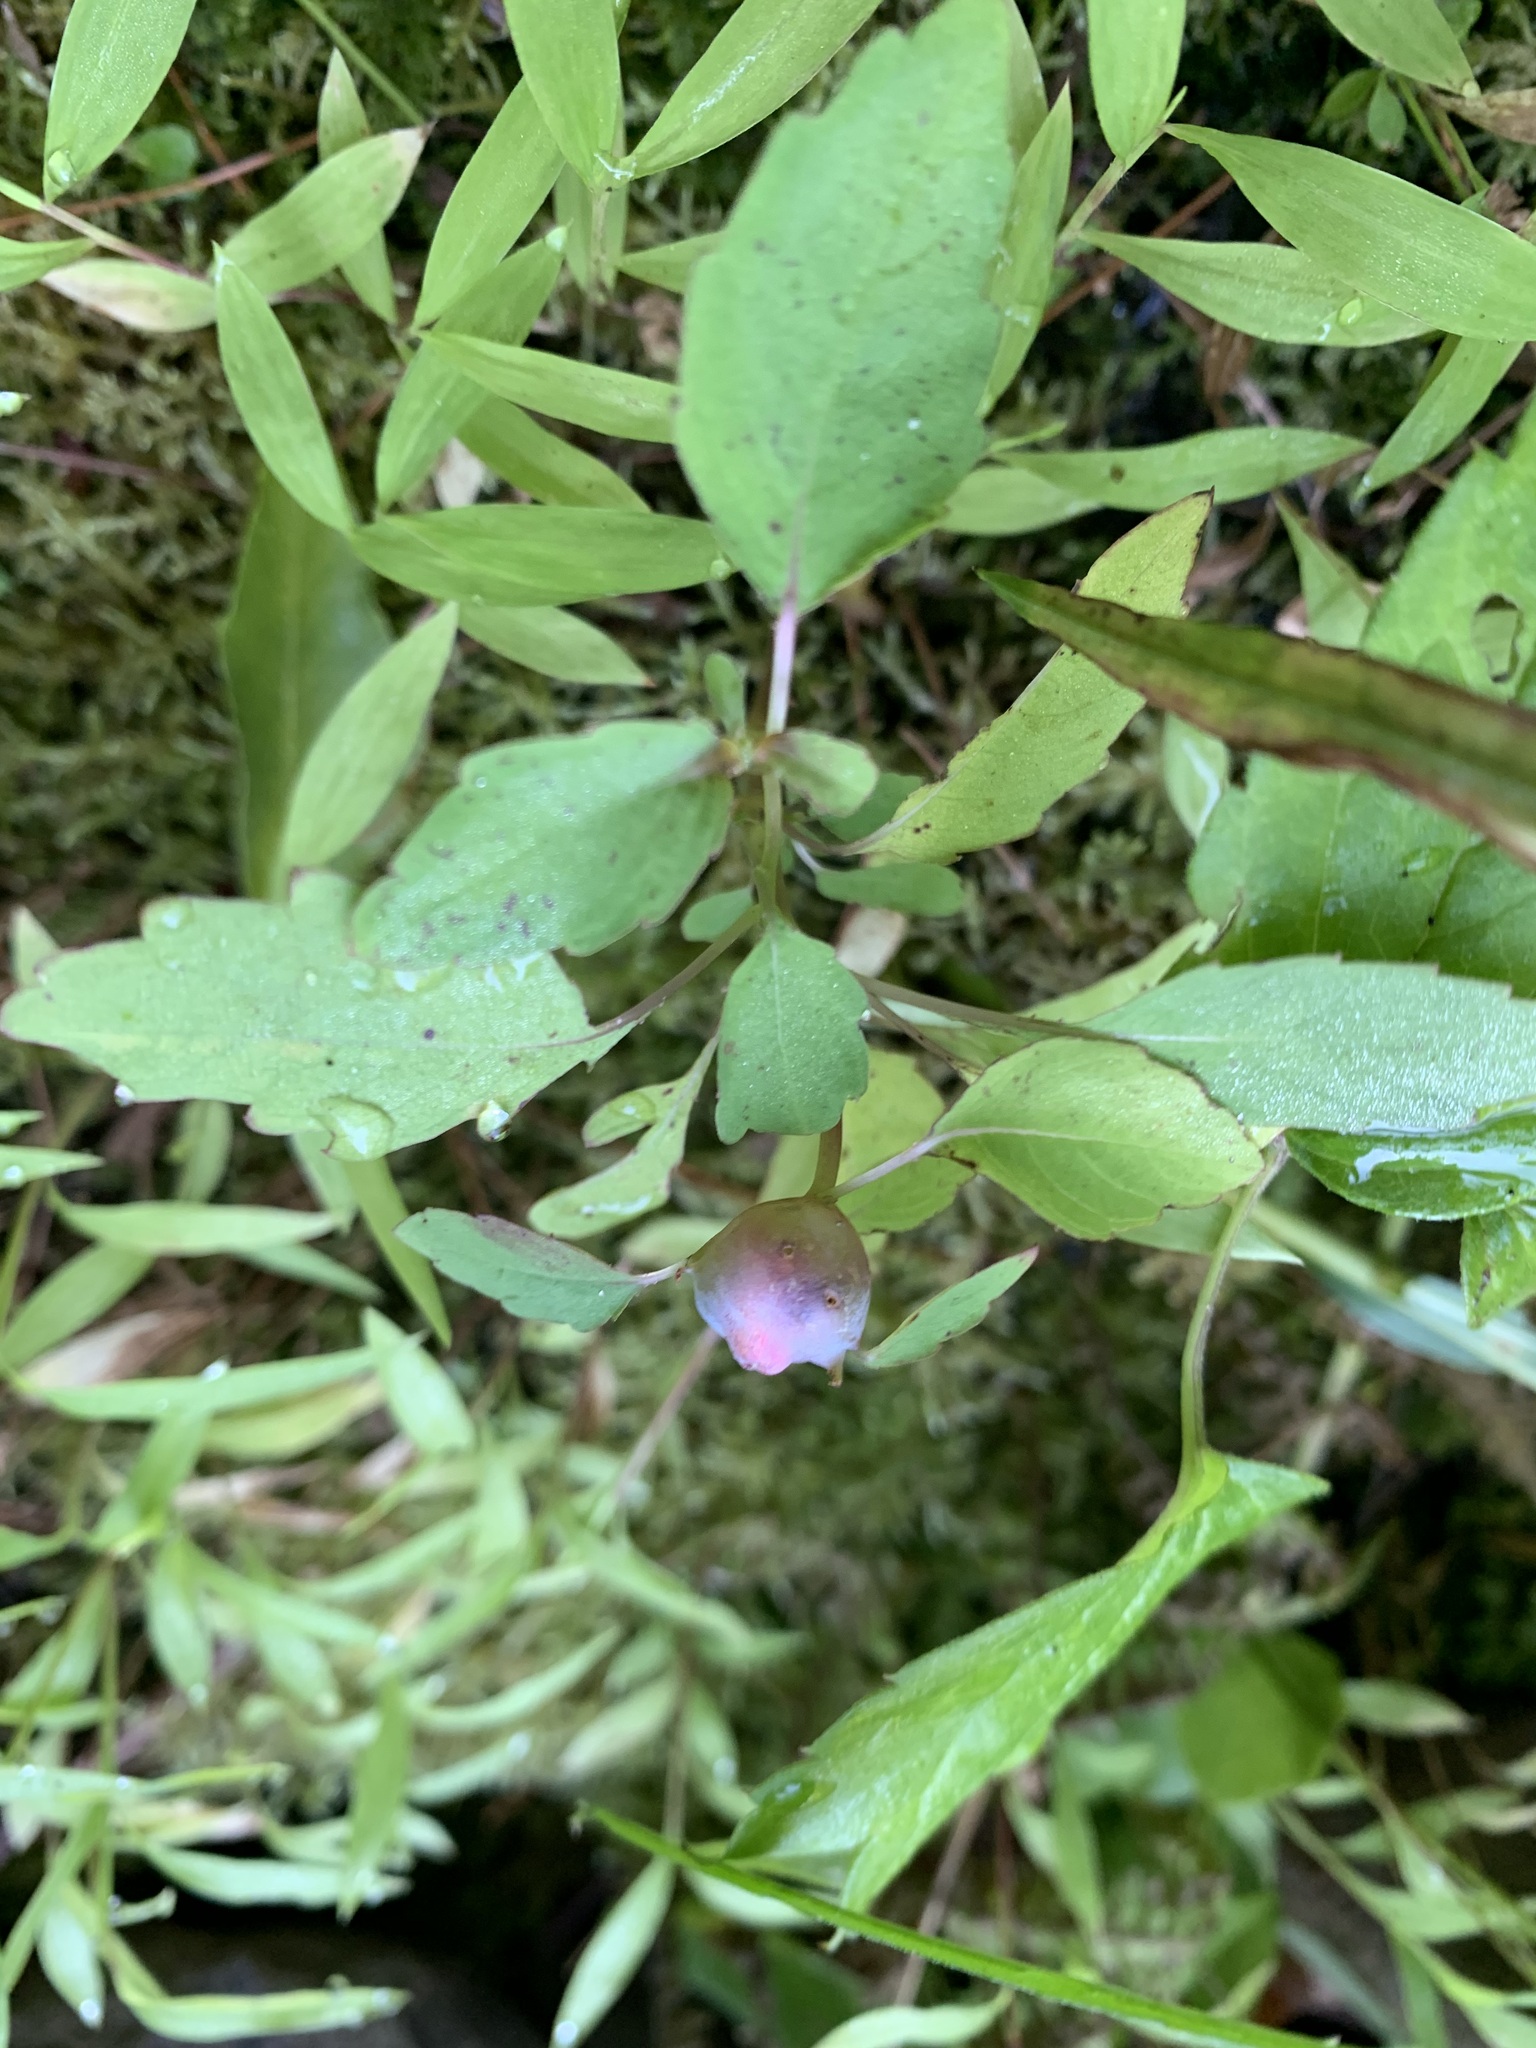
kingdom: Animalia
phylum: Arthropoda
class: Insecta
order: Diptera
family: Cecidomyiidae
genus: Schizomyia
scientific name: Schizomyia impatientis
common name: Jewelweed gall midge
